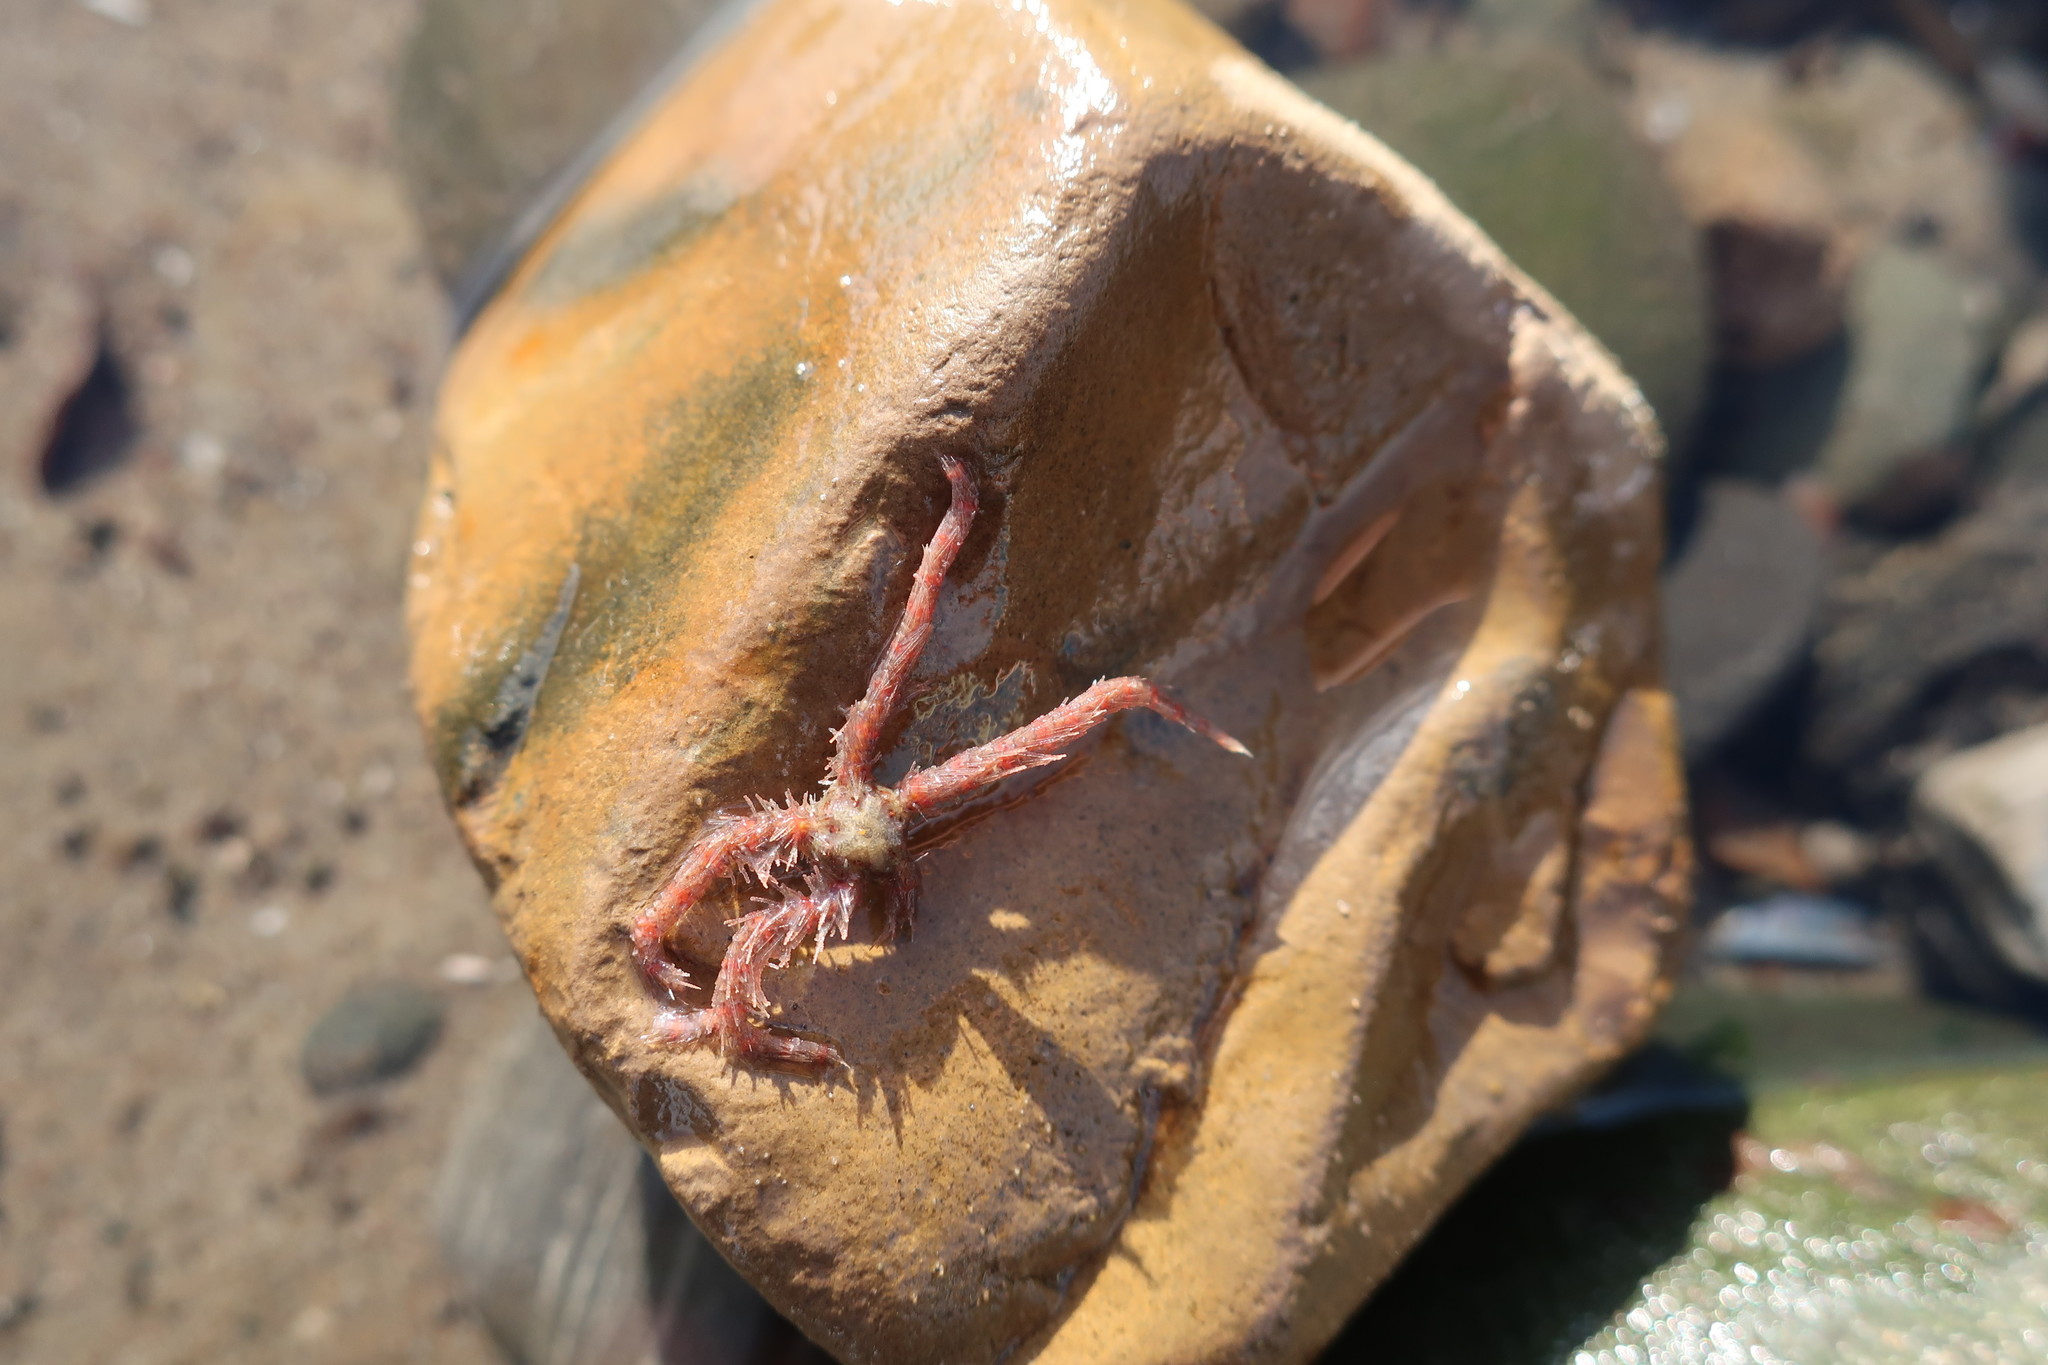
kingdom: Animalia
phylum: Echinodermata
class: Ophiuroidea
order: Amphilepidida
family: Ophiotrichidae
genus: Ophiothrix
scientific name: Ophiothrix spiculata
